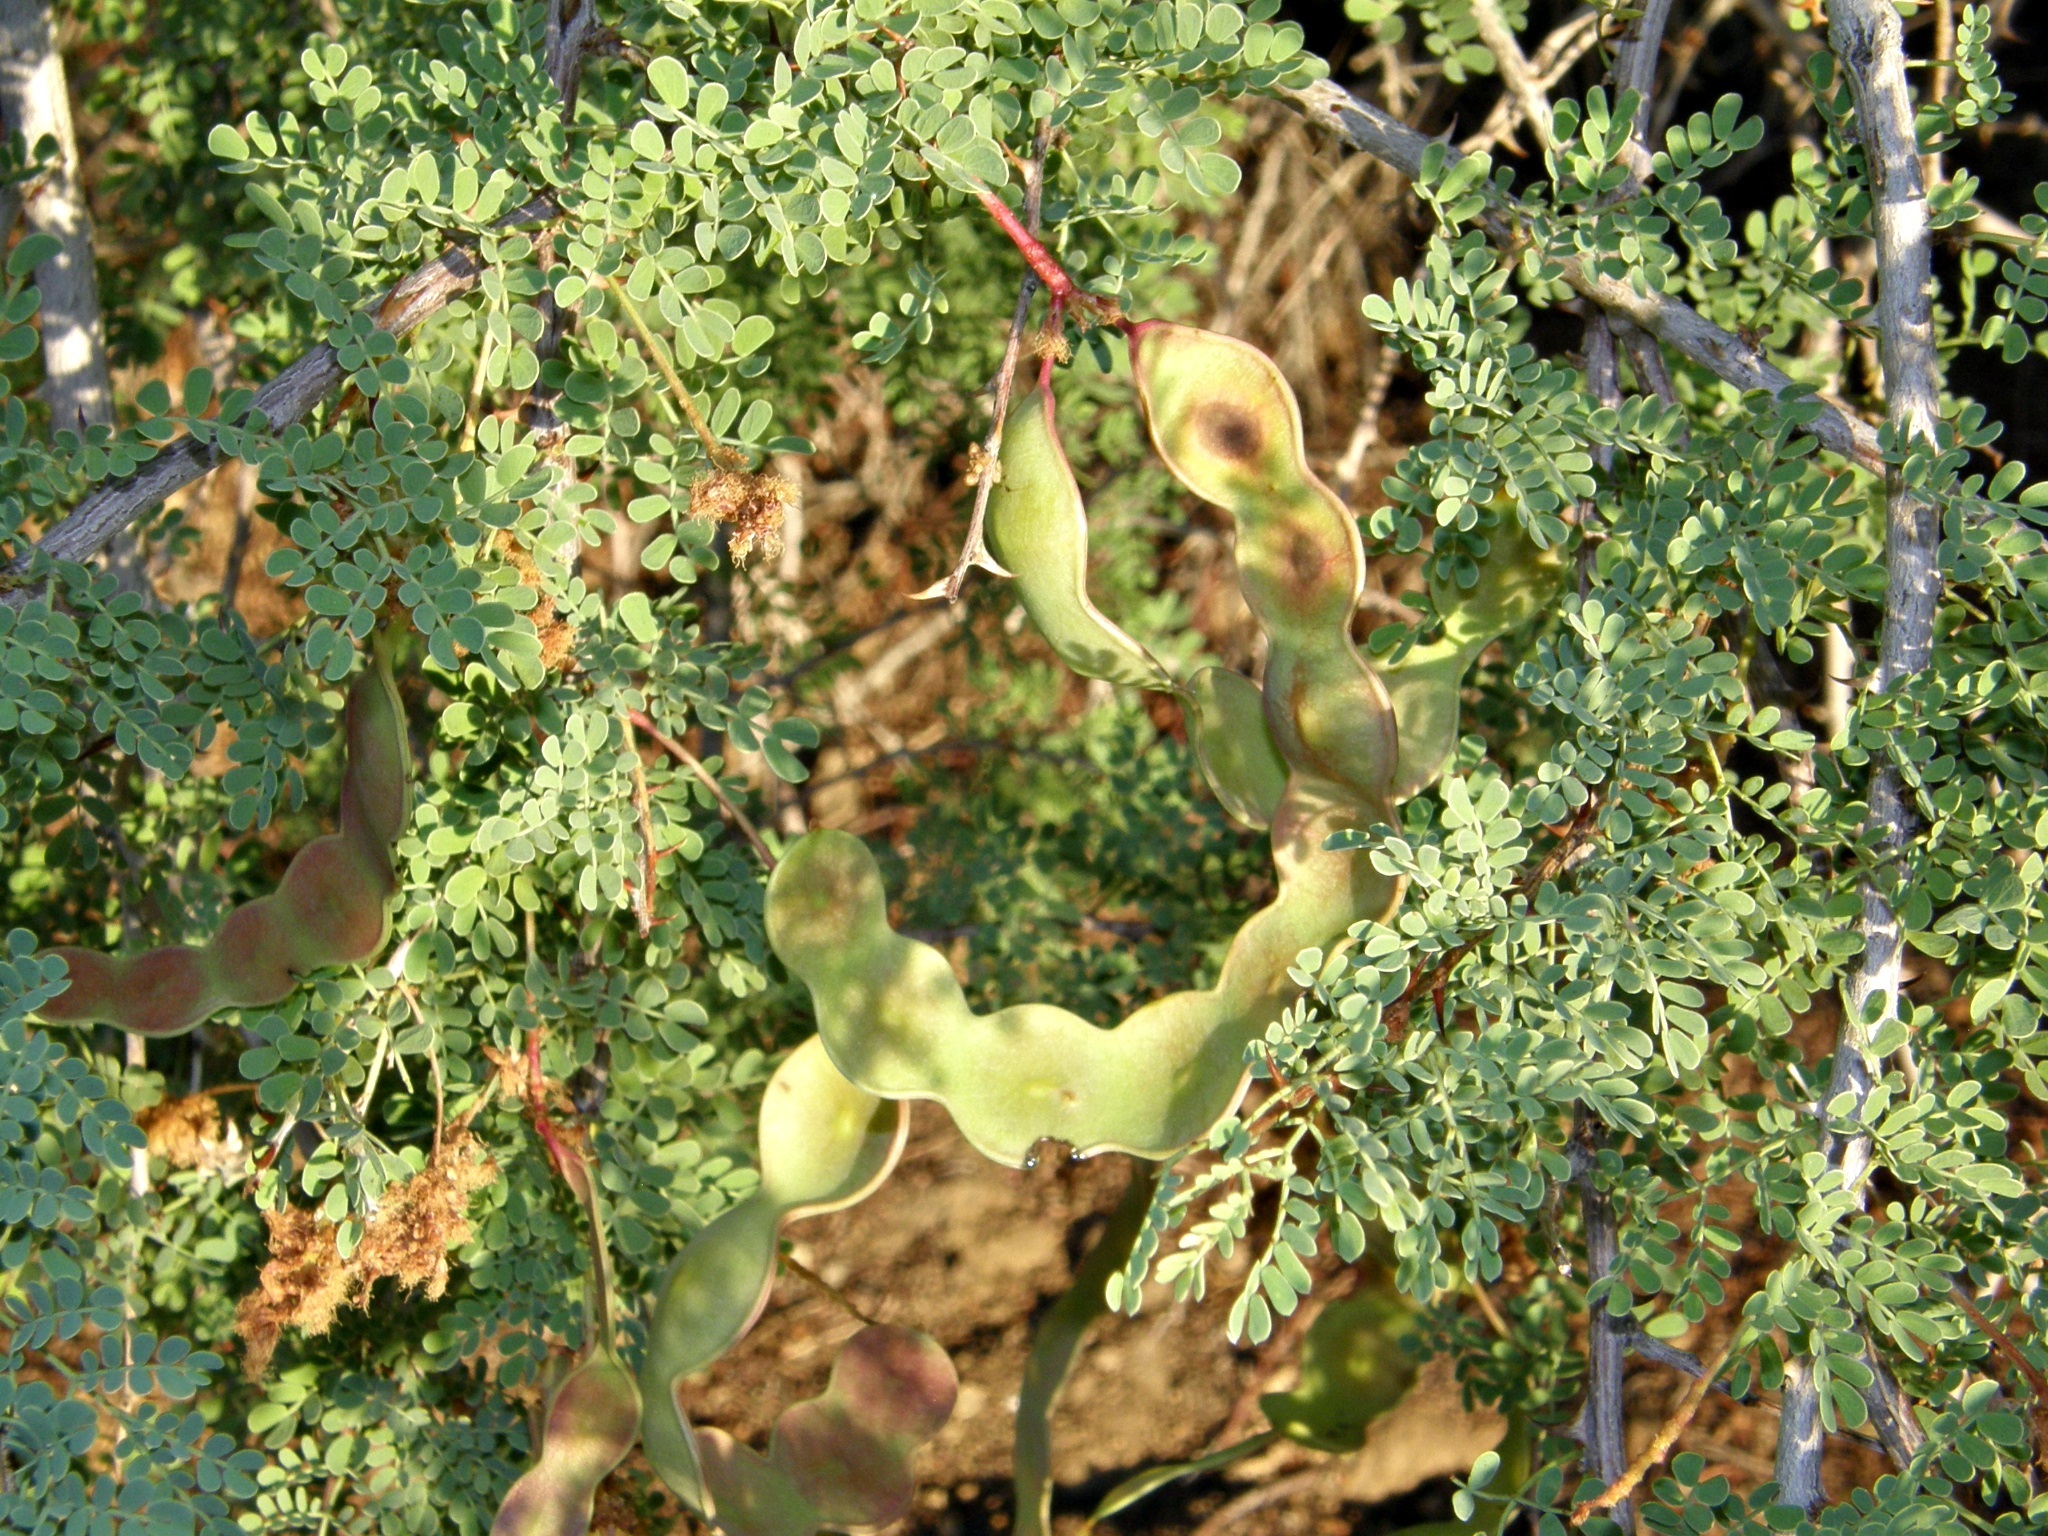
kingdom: Plantae
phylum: Tracheophyta
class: Magnoliopsida
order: Fabales
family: Fabaceae
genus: Senegalia
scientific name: Senegalia greggii
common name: Texas-mimosa
